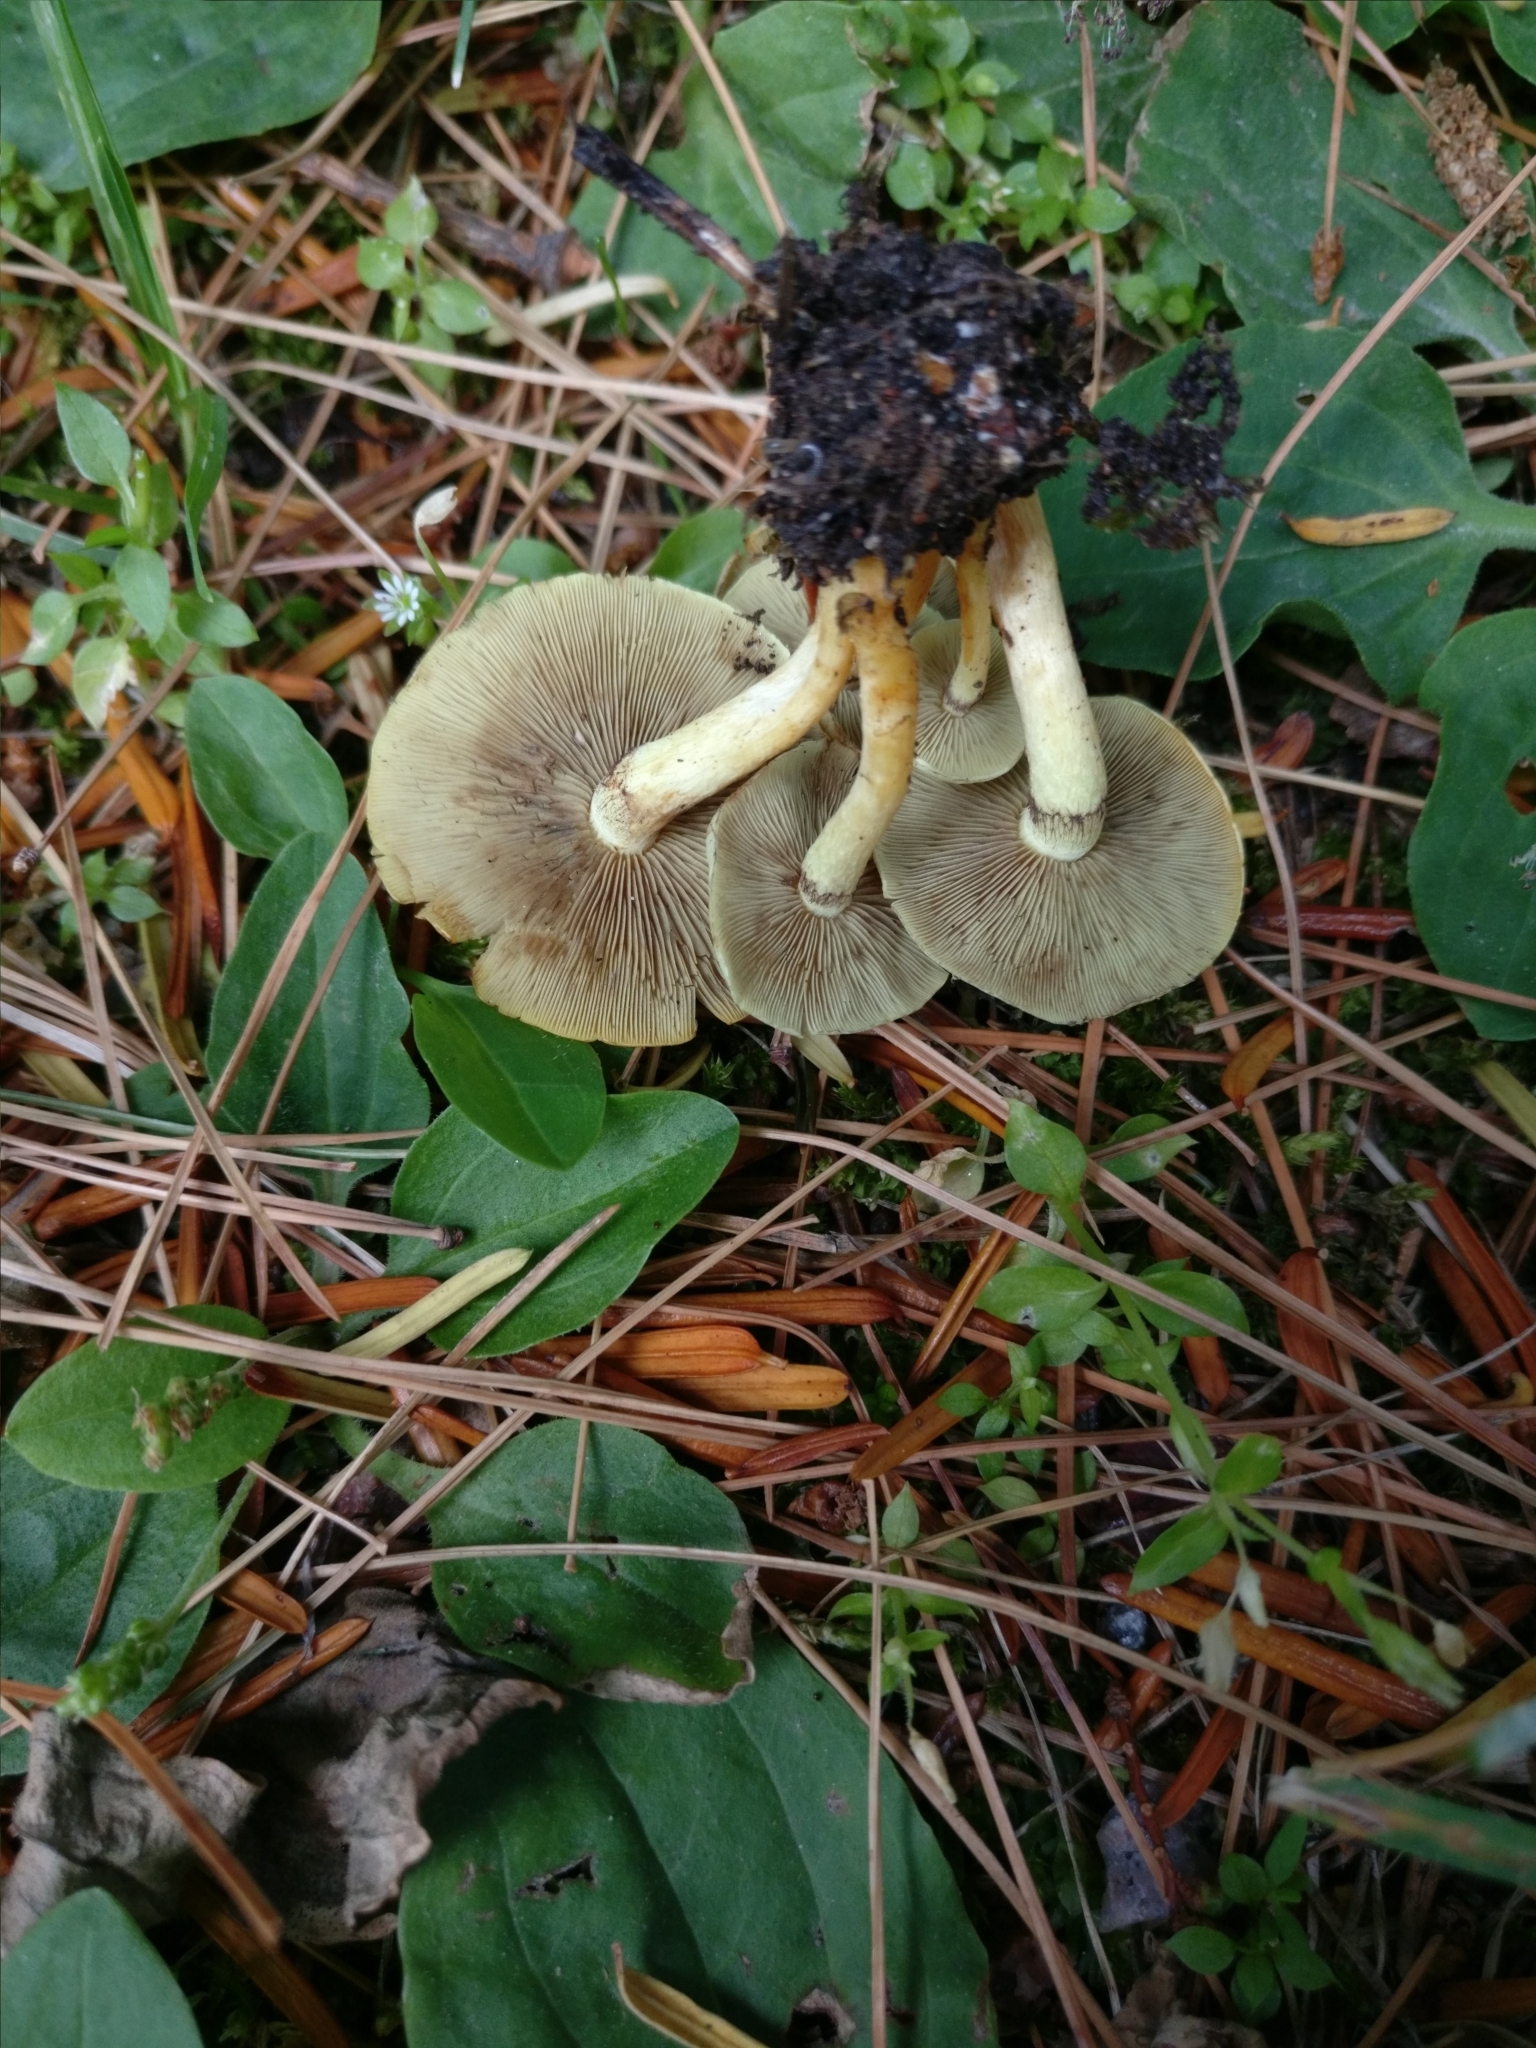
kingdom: Fungi
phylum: Basidiomycota
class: Agaricomycetes
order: Agaricales
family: Strophariaceae
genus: Hypholoma
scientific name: Hypholoma fasciculare
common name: Sulphur tuft
